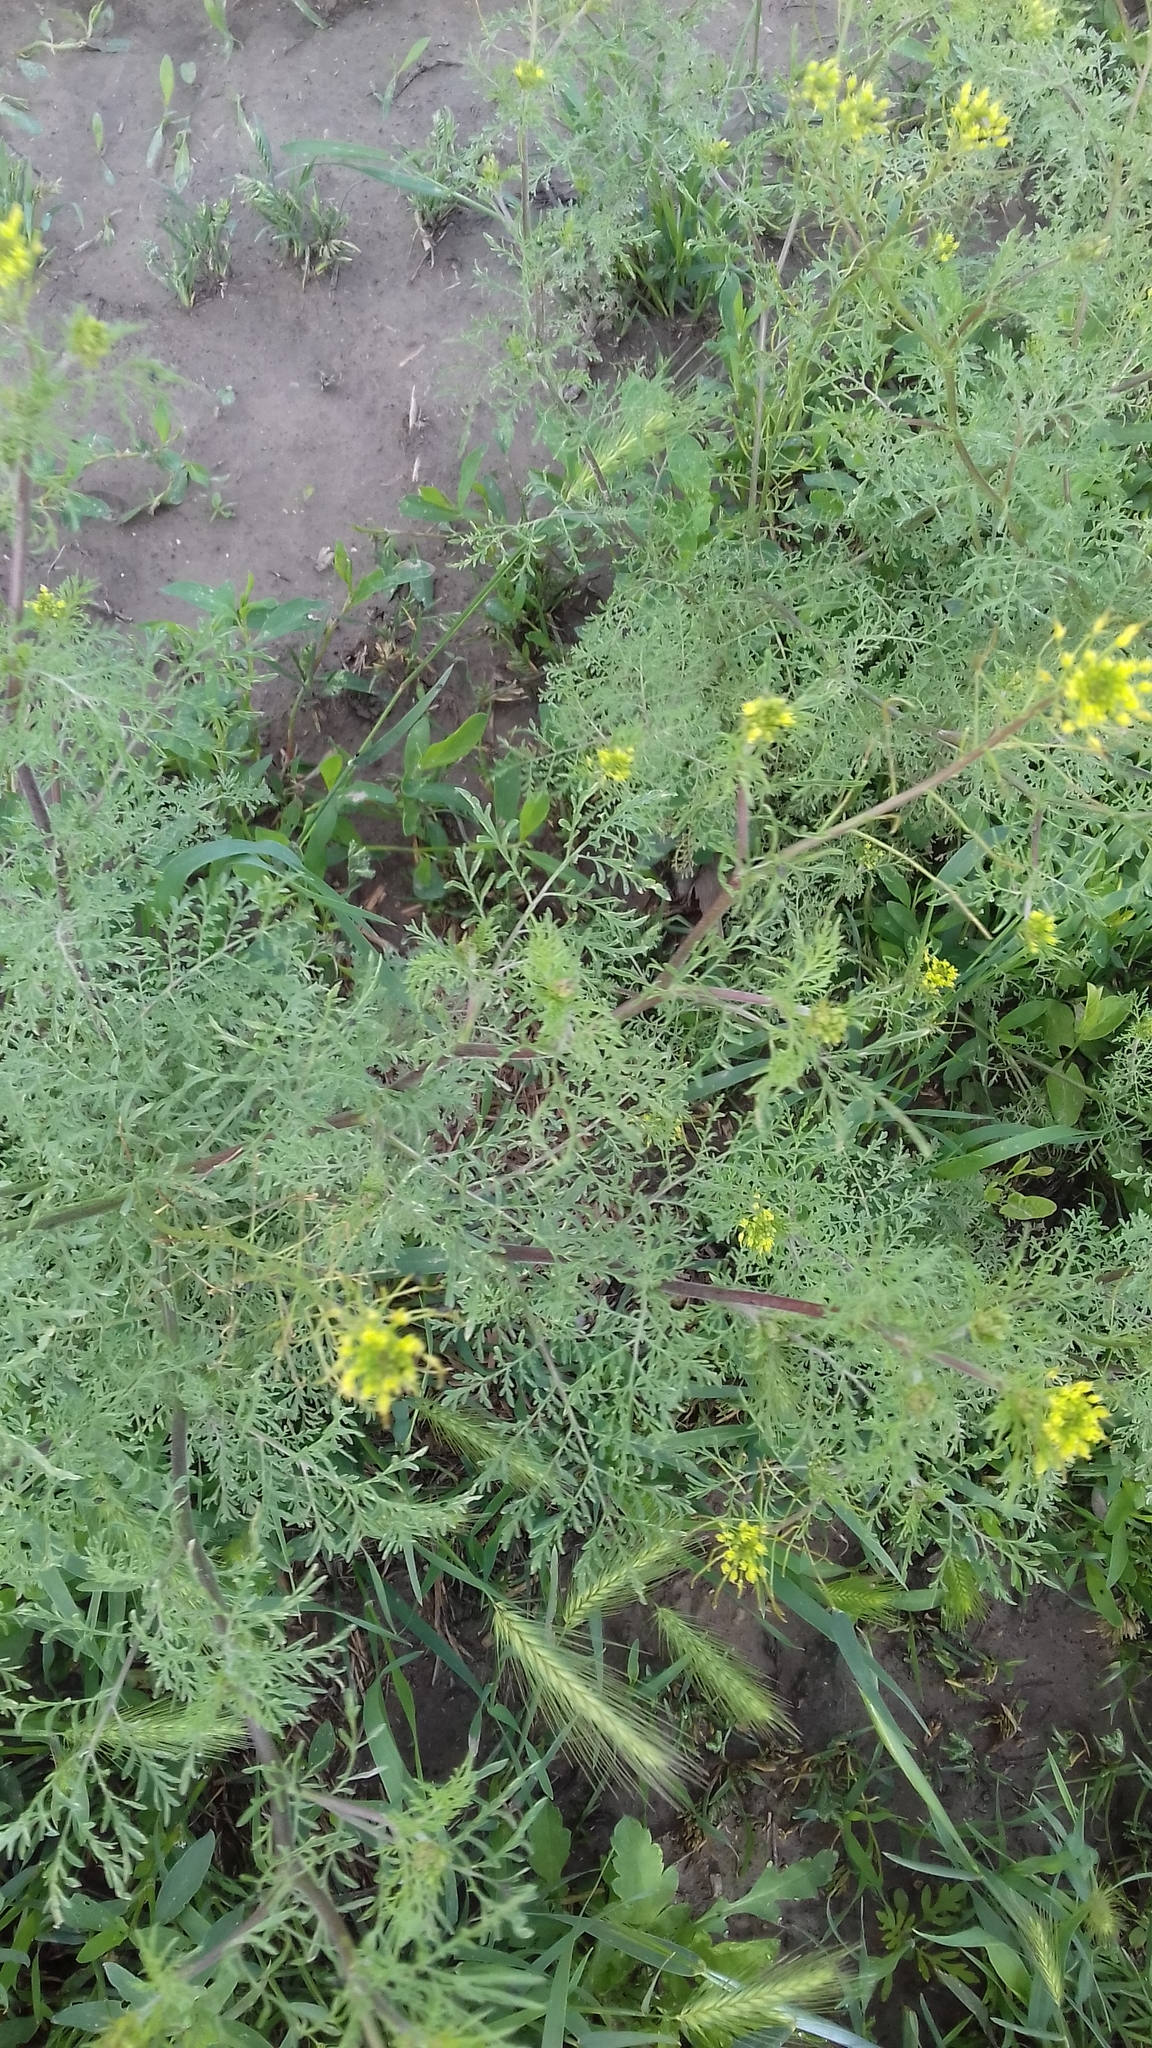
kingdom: Plantae
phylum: Tracheophyta
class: Magnoliopsida
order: Brassicales
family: Brassicaceae
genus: Descurainia
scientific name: Descurainia sophia
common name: Flixweed
